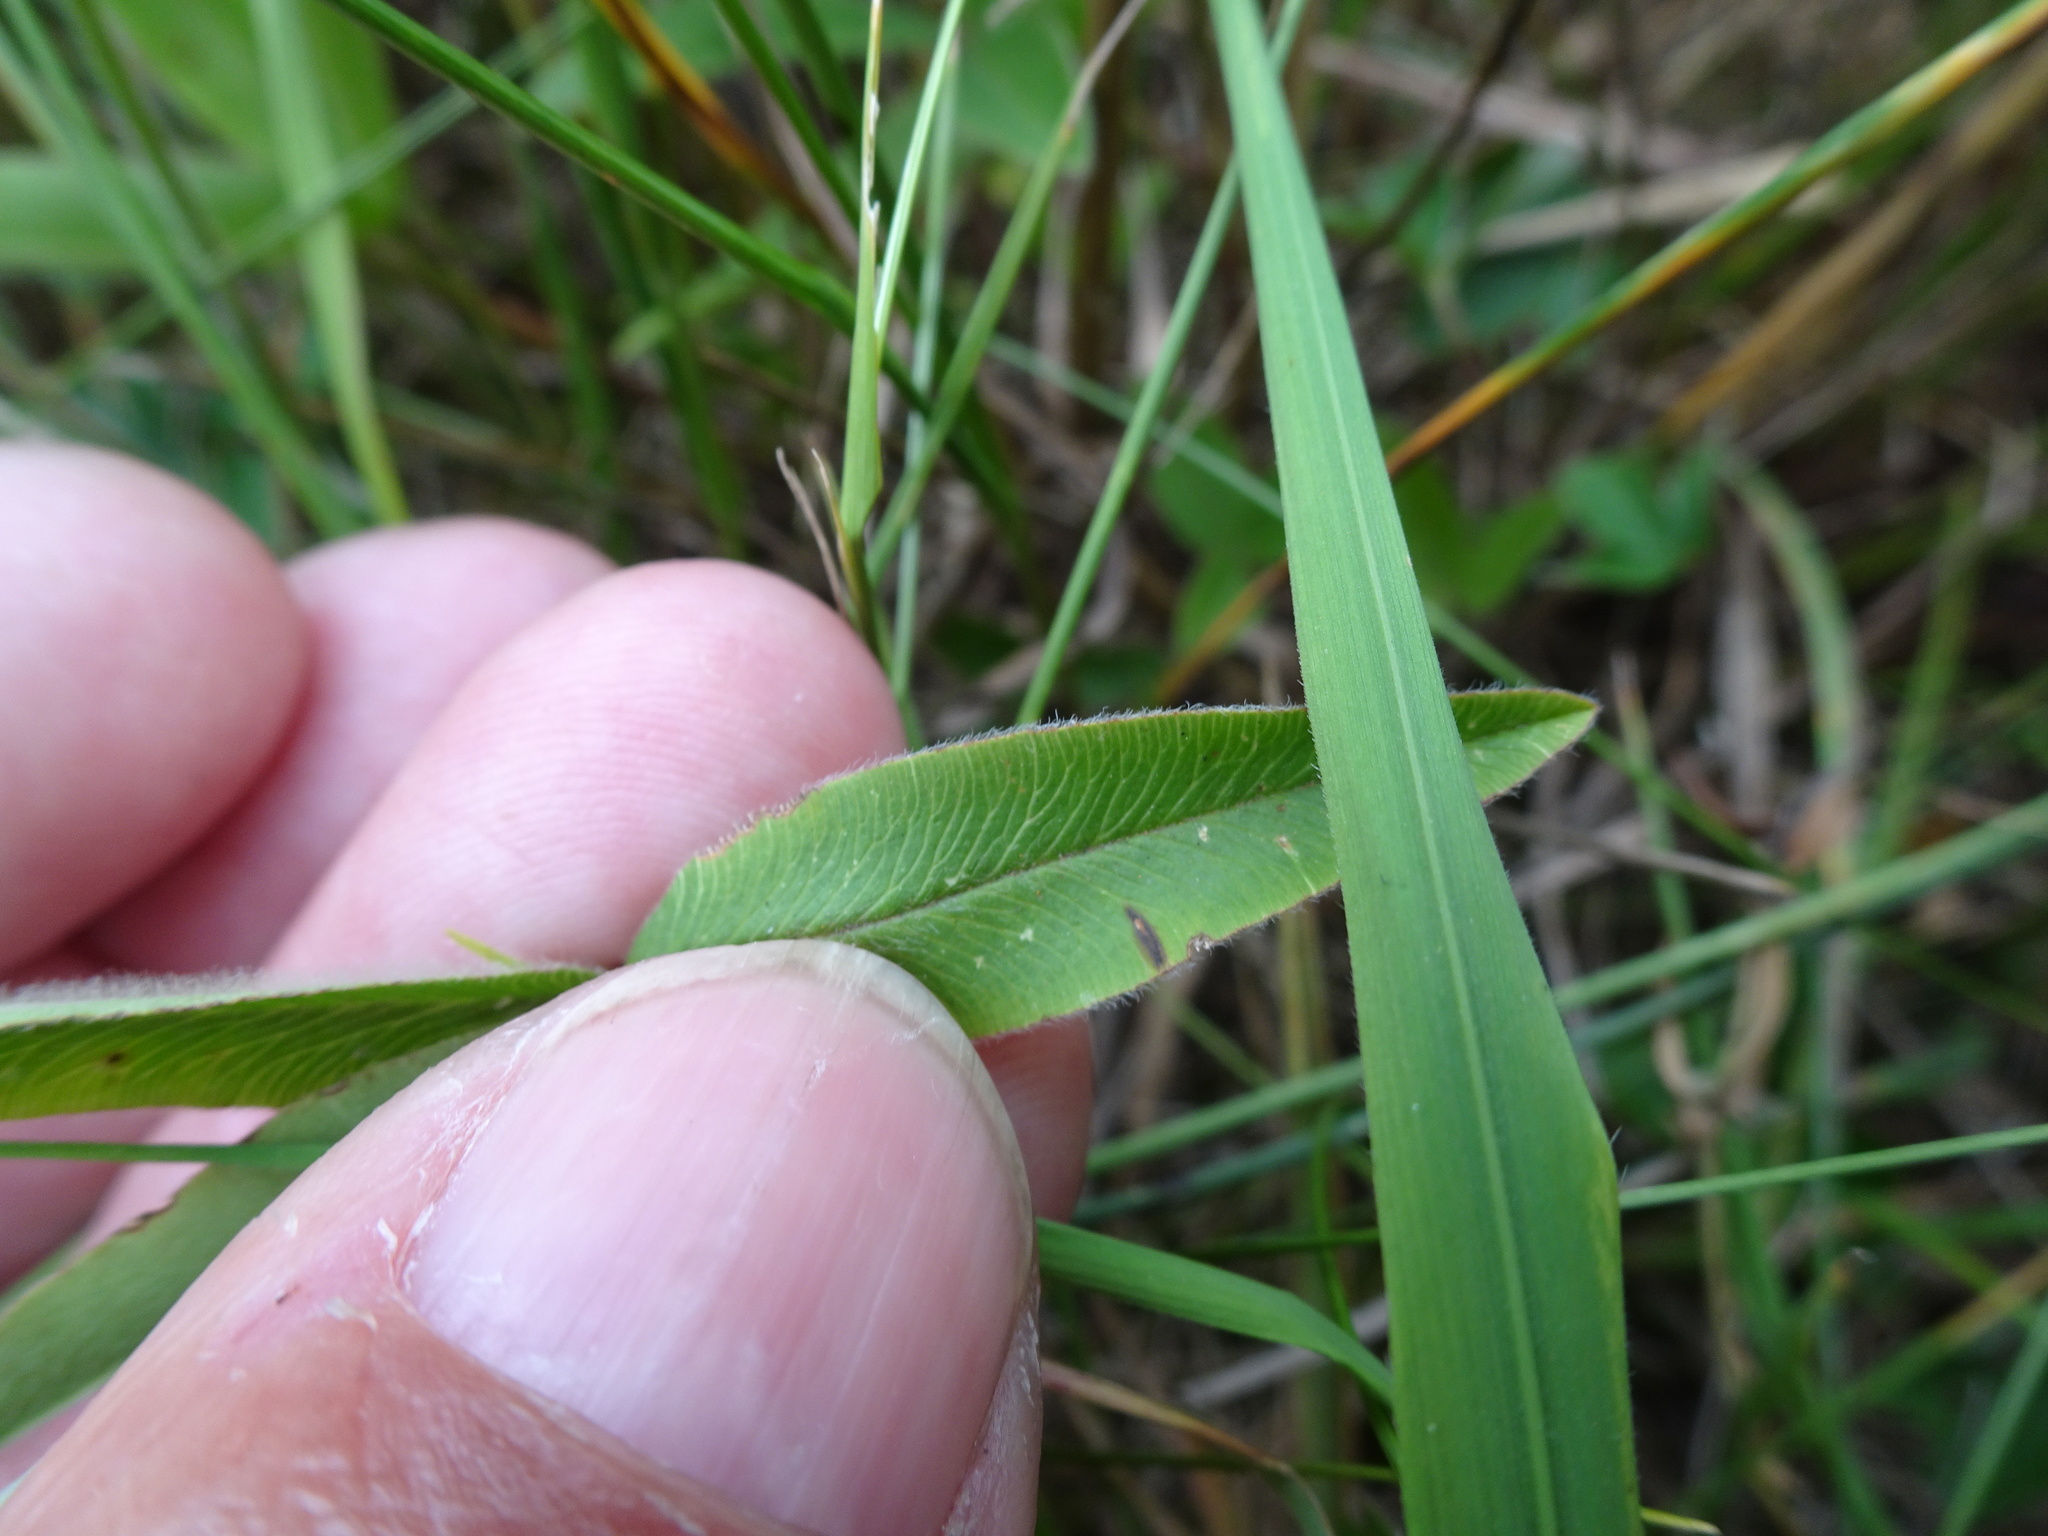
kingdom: Plantae
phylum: Tracheophyta
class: Magnoliopsida
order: Fabales
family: Fabaceae
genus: Trifolium
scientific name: Trifolium alpestre
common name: Owl-head clover
